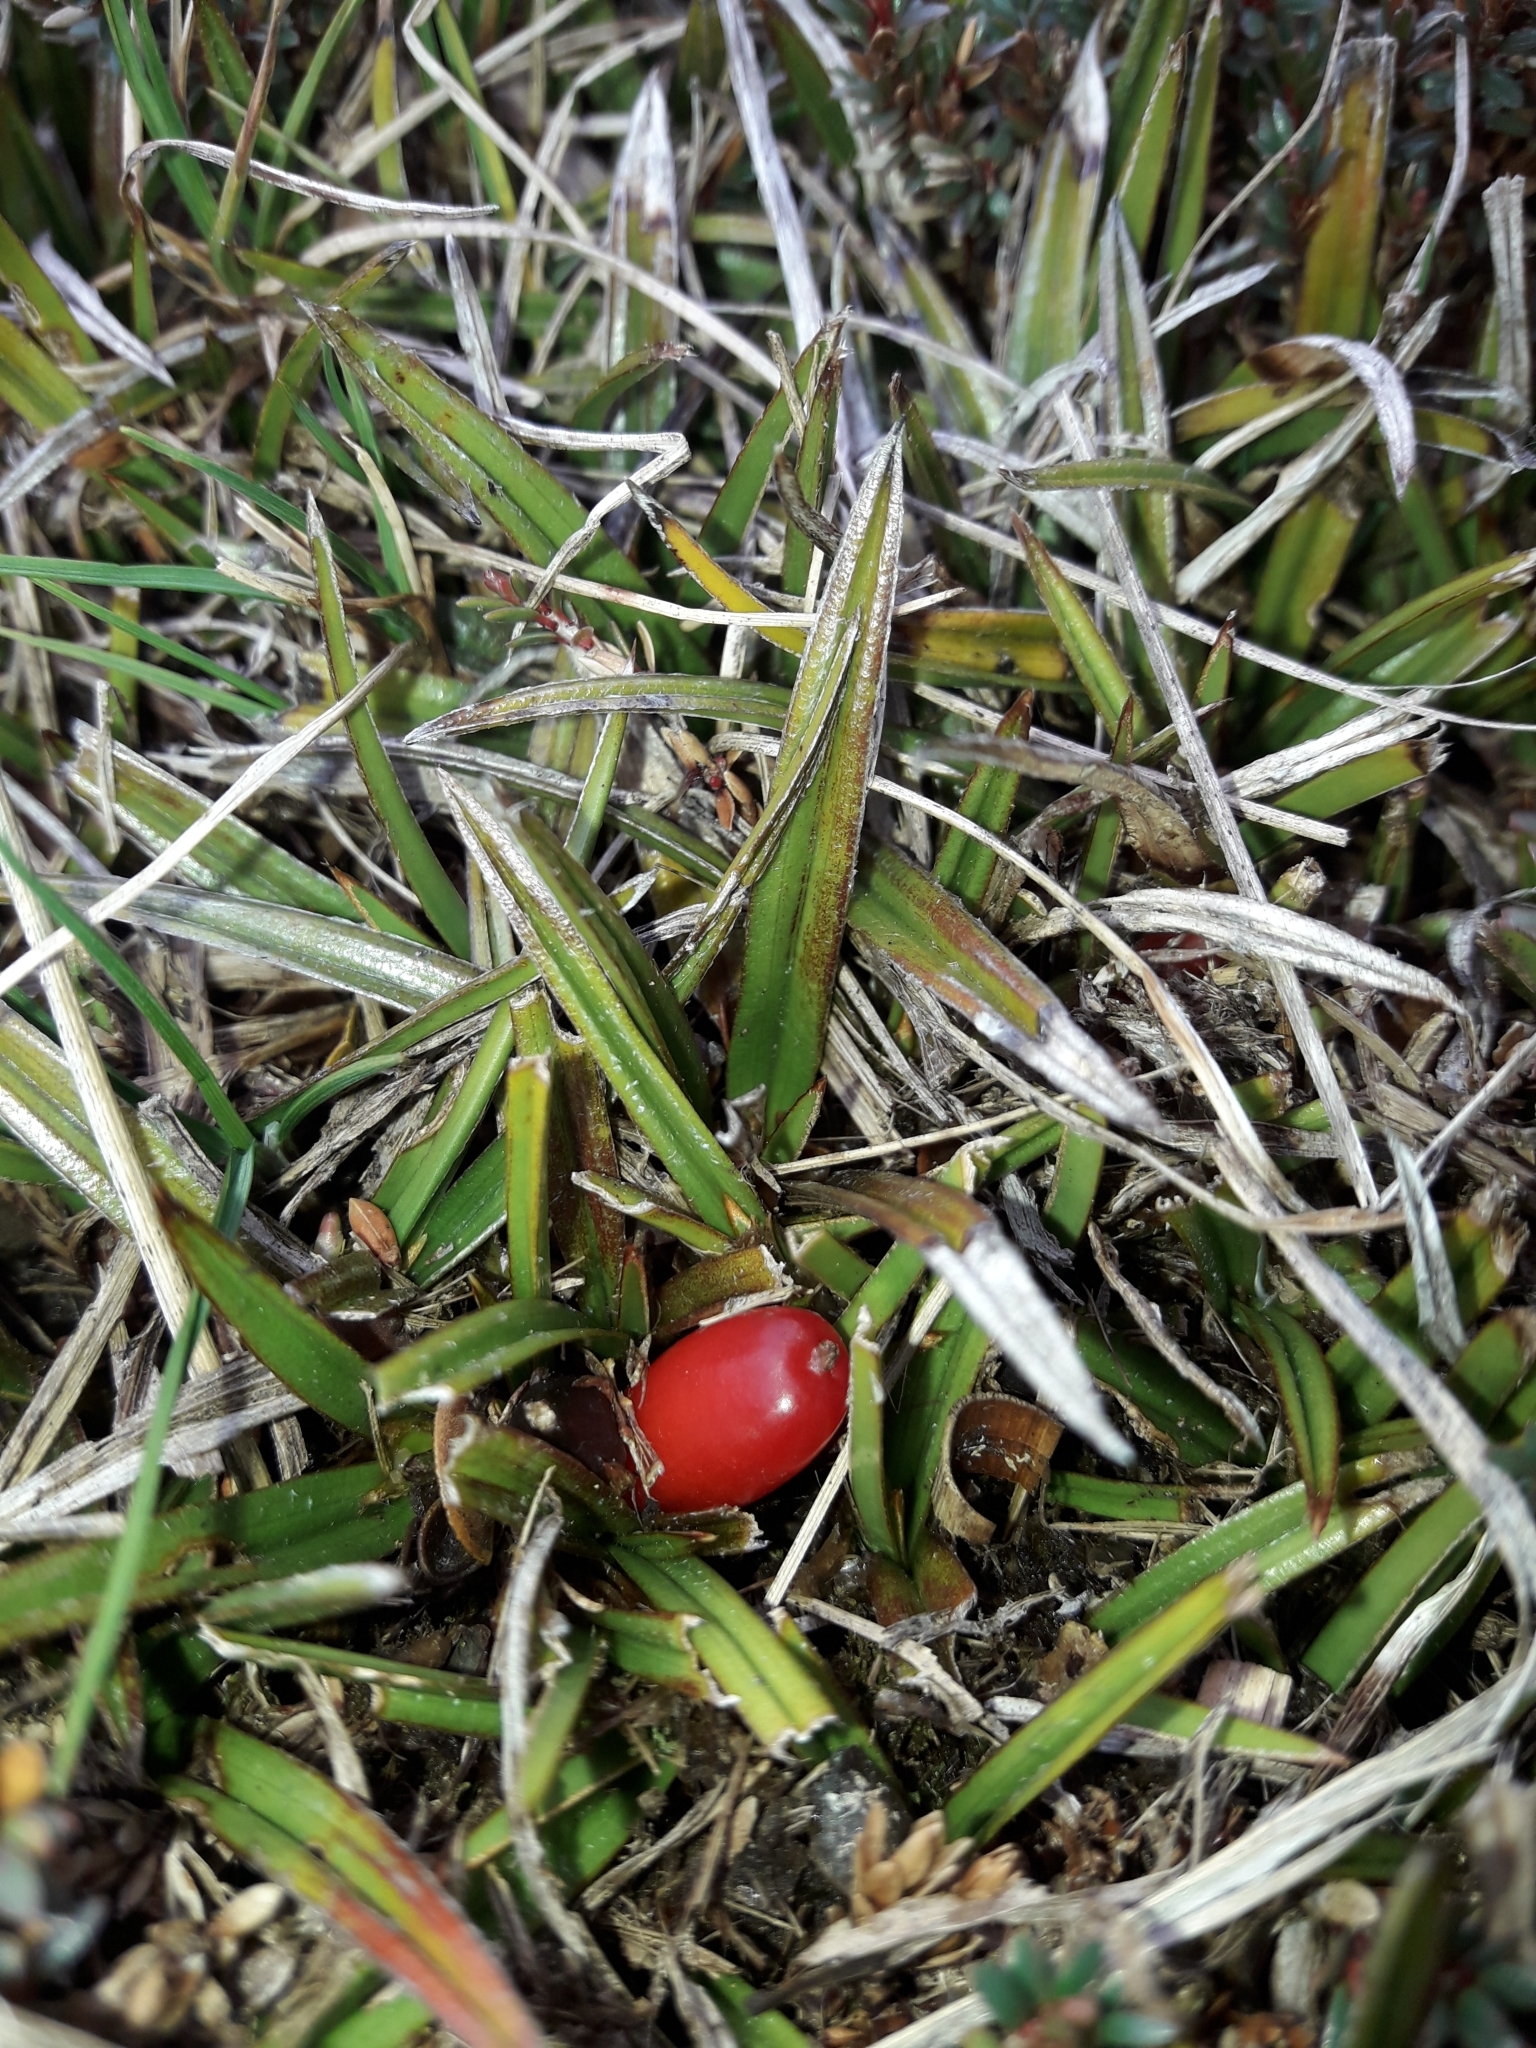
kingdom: Plantae
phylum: Tracheophyta
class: Liliopsida
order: Asparagales
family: Asteliaceae
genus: Astelia
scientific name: Astelia linearis
